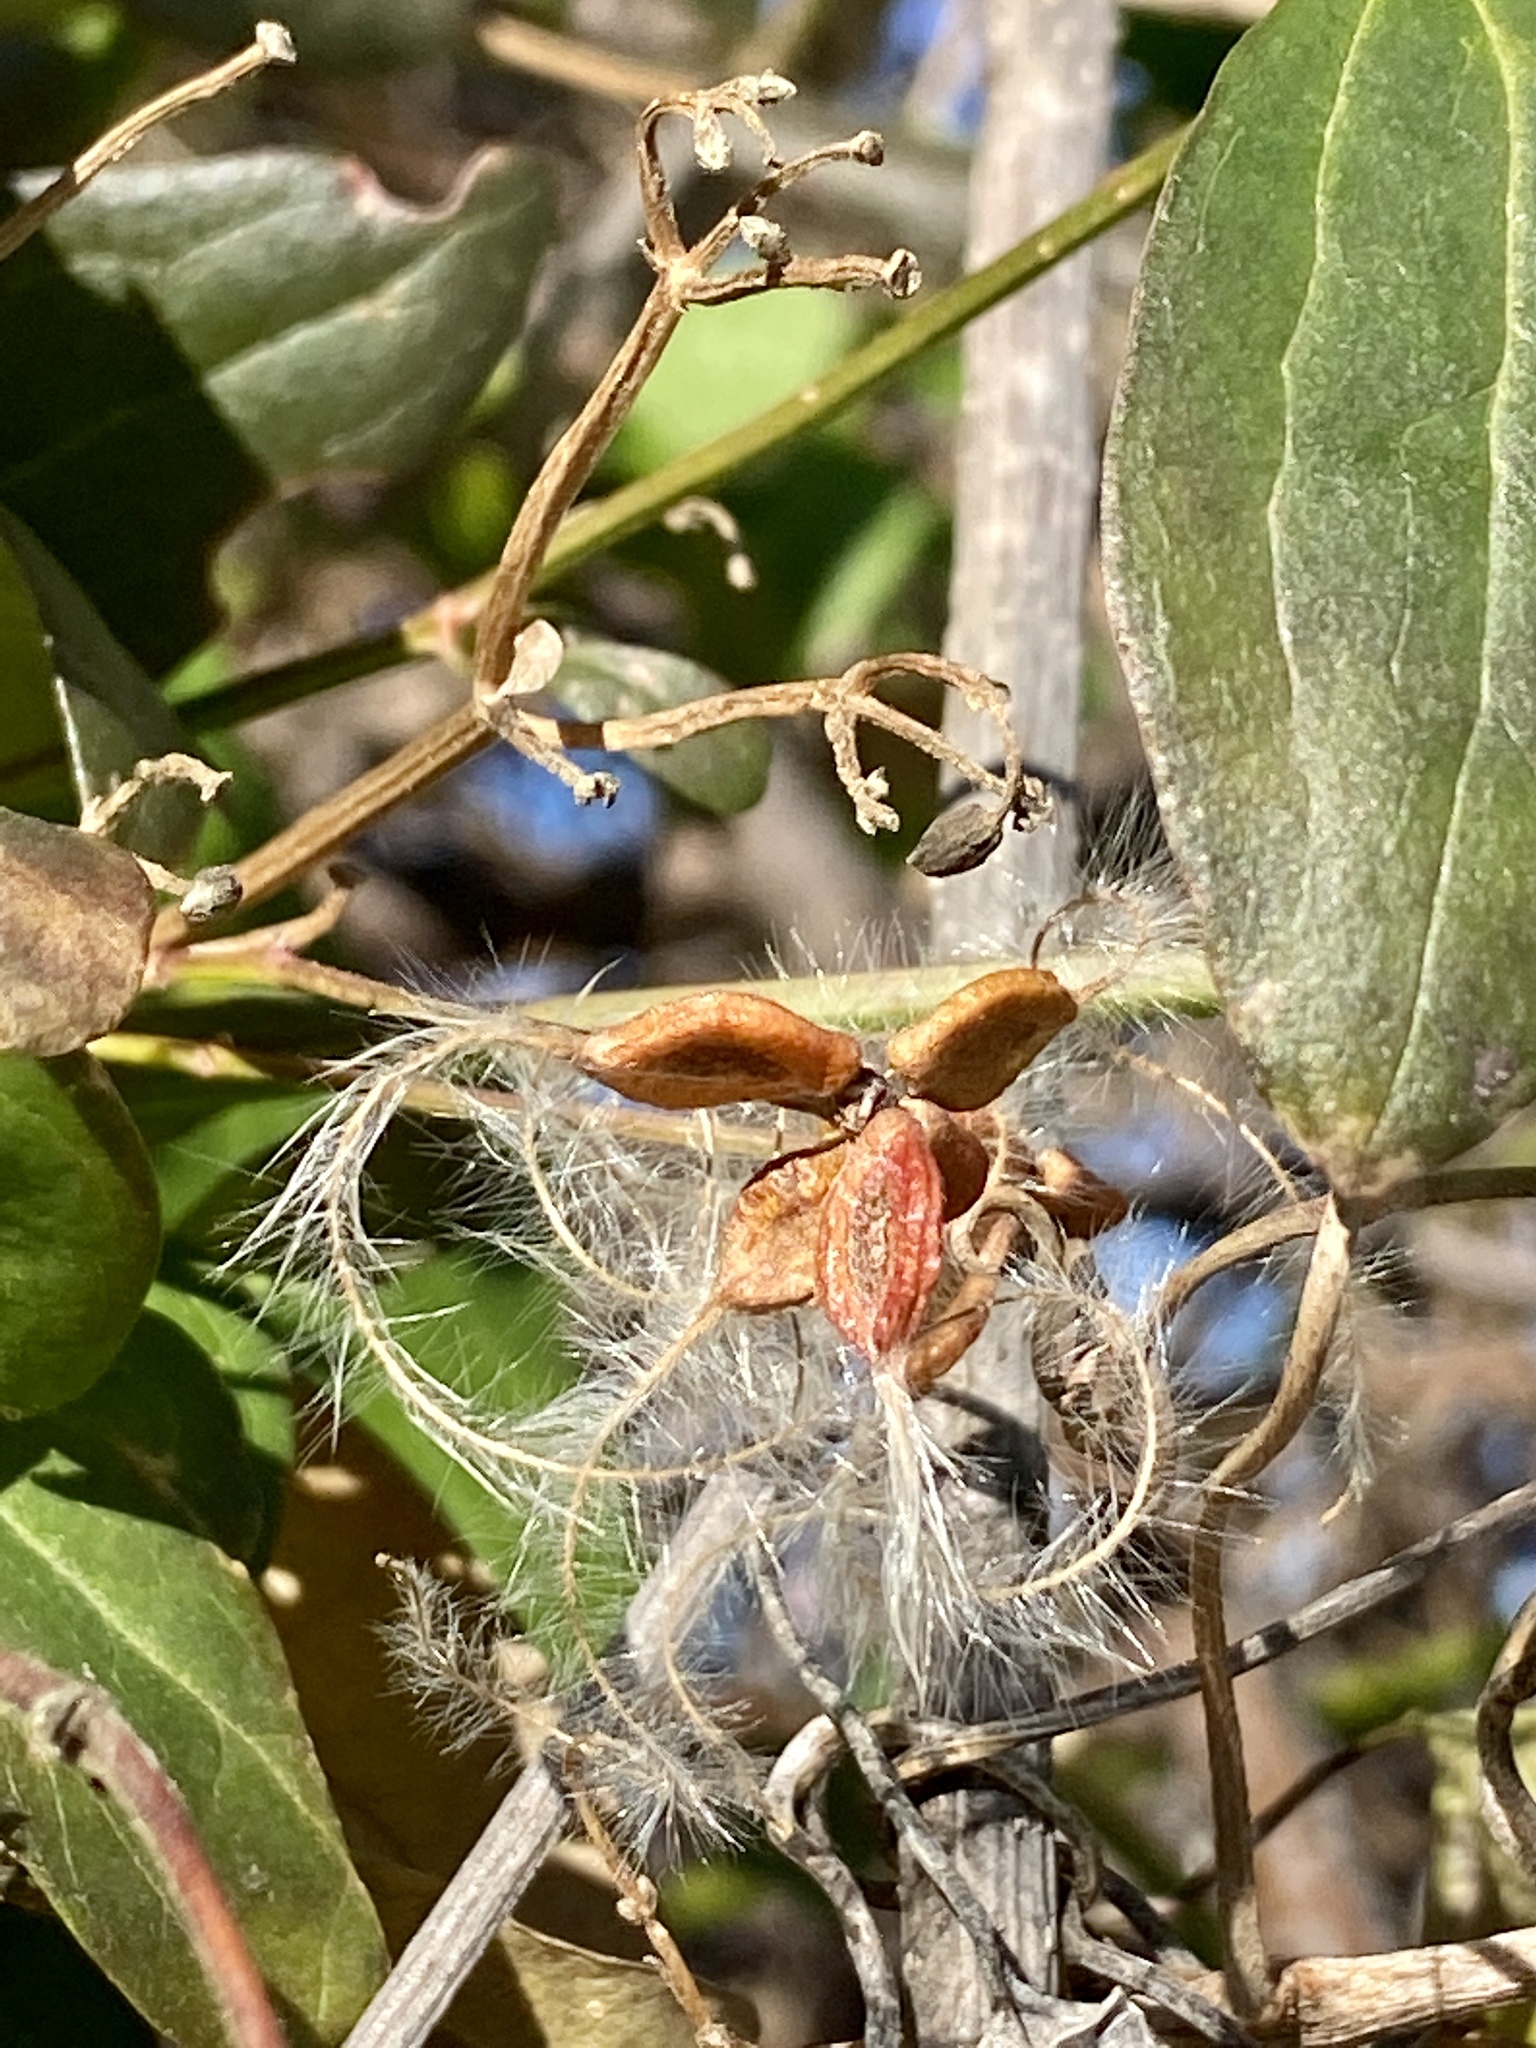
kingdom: Plantae
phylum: Tracheophyta
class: Magnoliopsida
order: Ranunculales
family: Ranunculaceae
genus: Clematis
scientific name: Clematis terniflora
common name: Sweet autumn clematis
